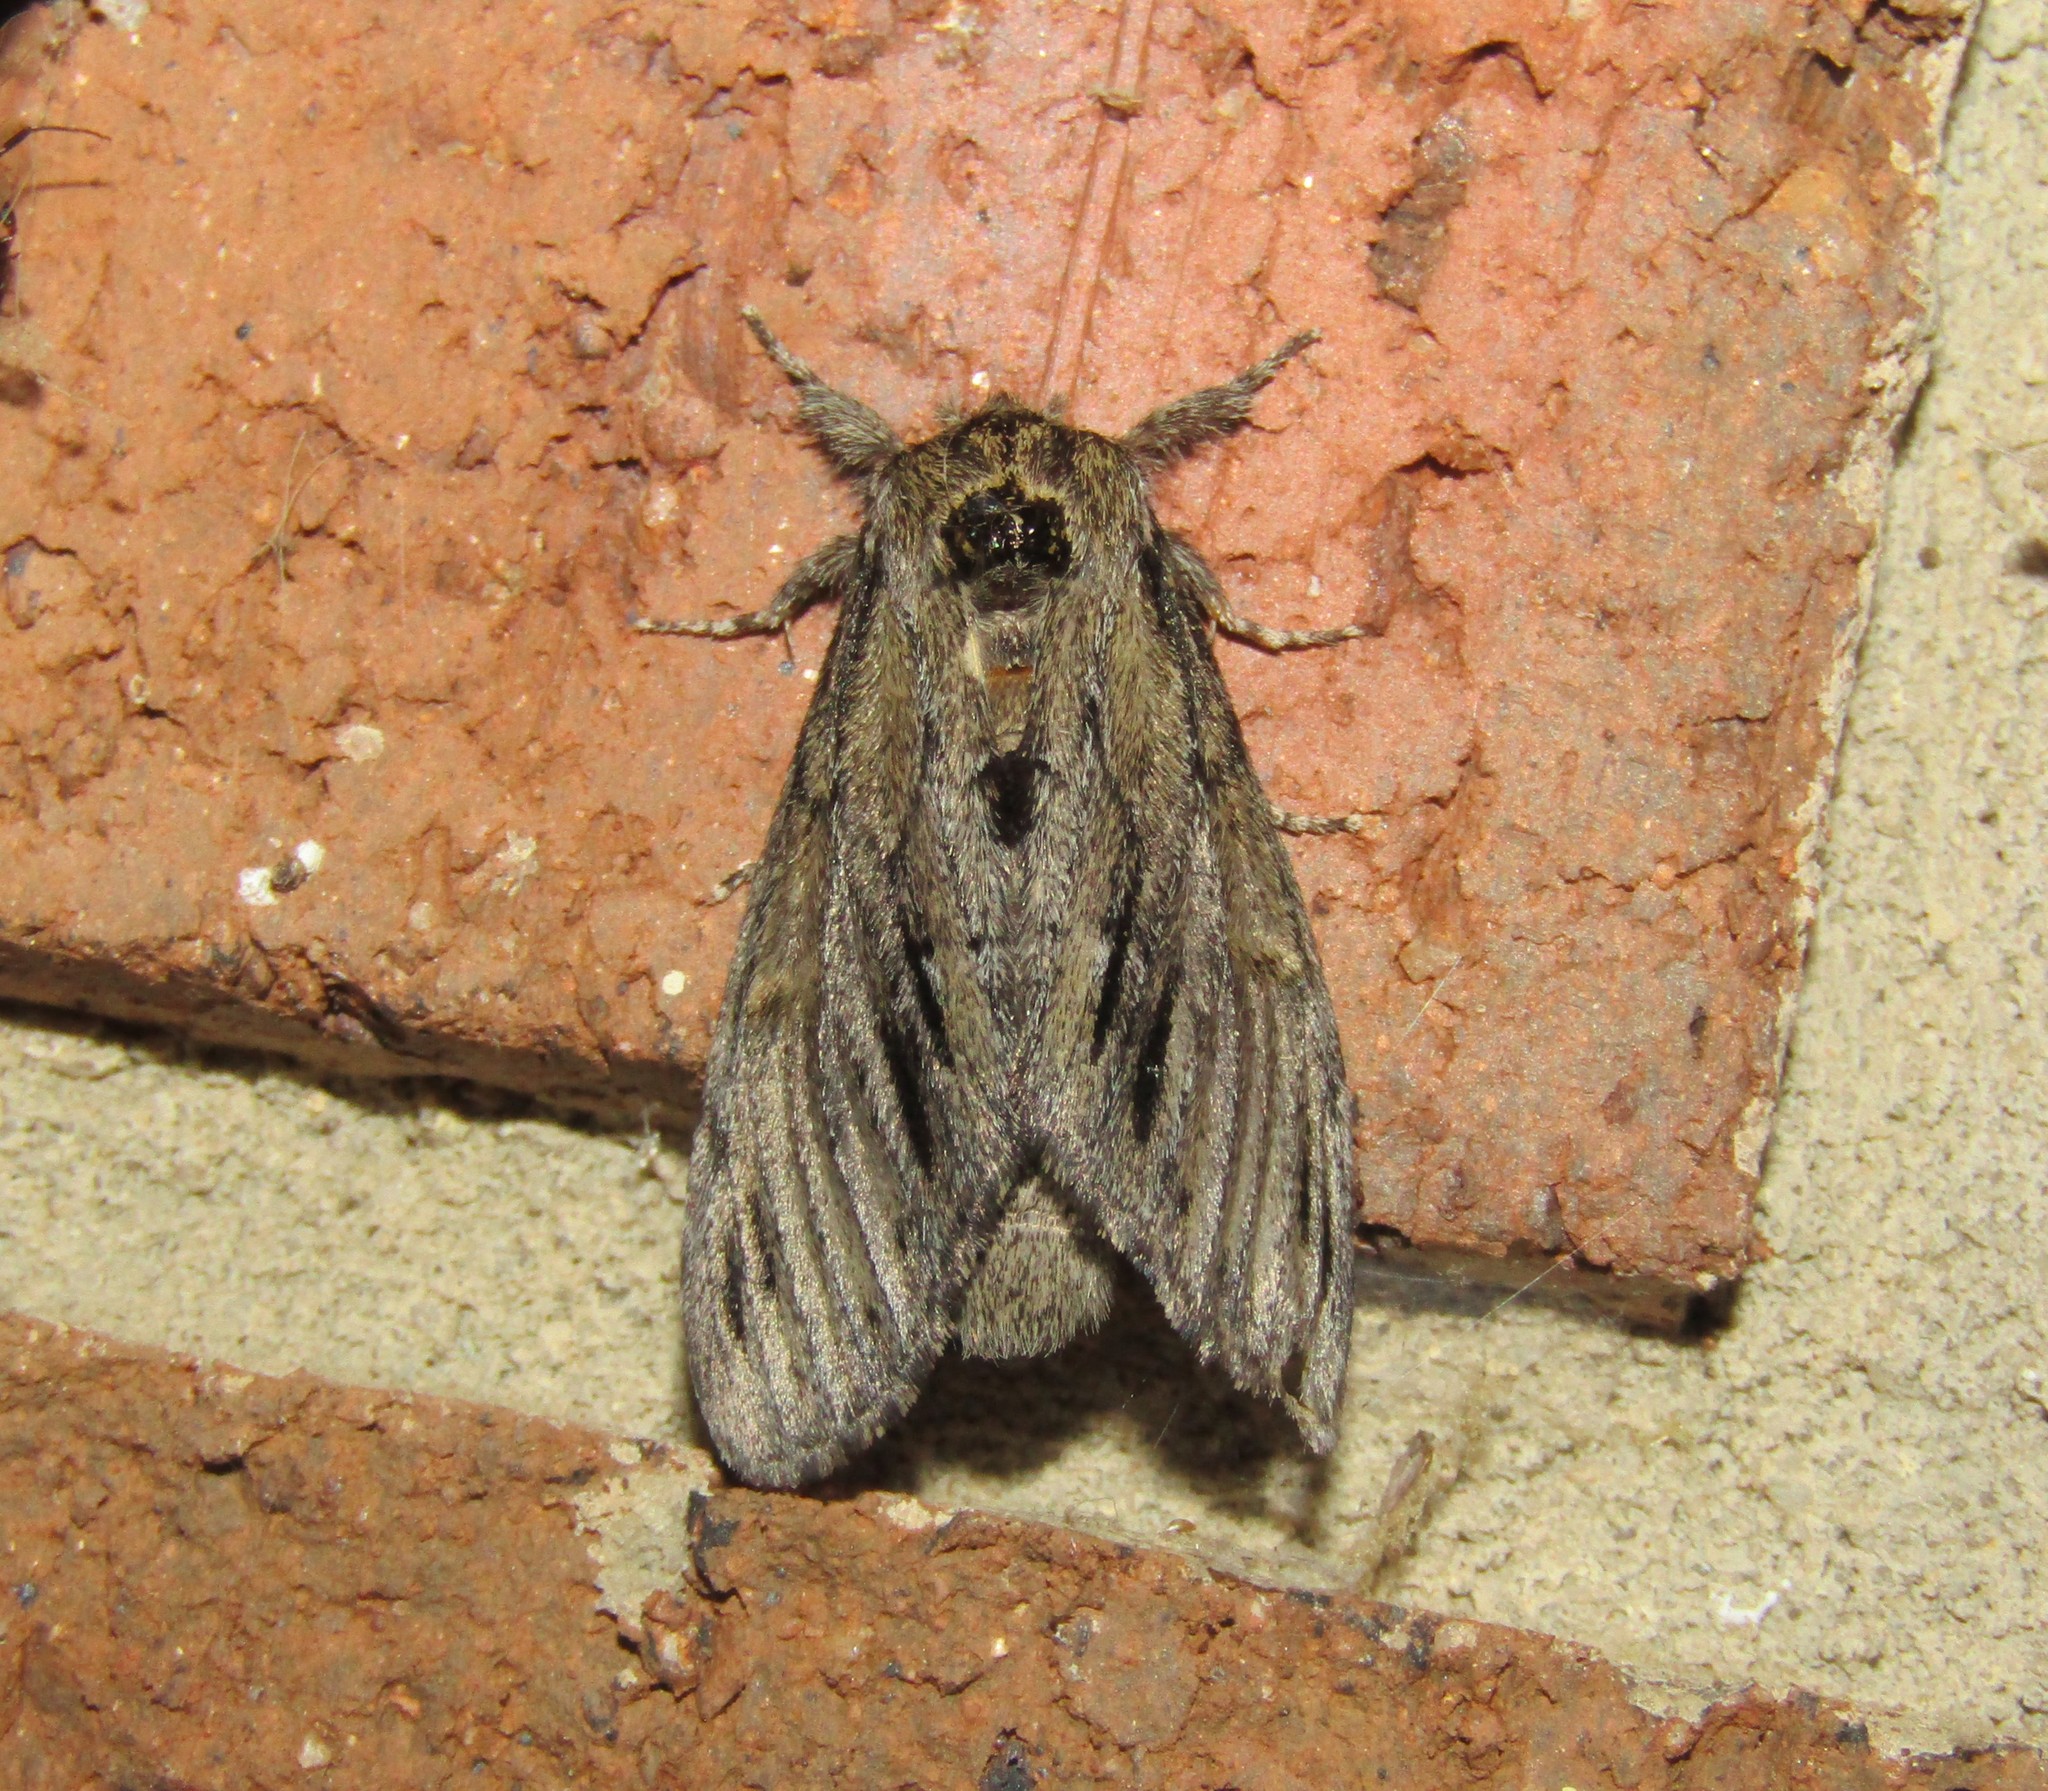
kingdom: Animalia
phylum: Arthropoda
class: Insecta
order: Lepidoptera
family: Notodontidae
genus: Paraeschra
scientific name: Paraeschra georgica
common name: Georgian prominent
